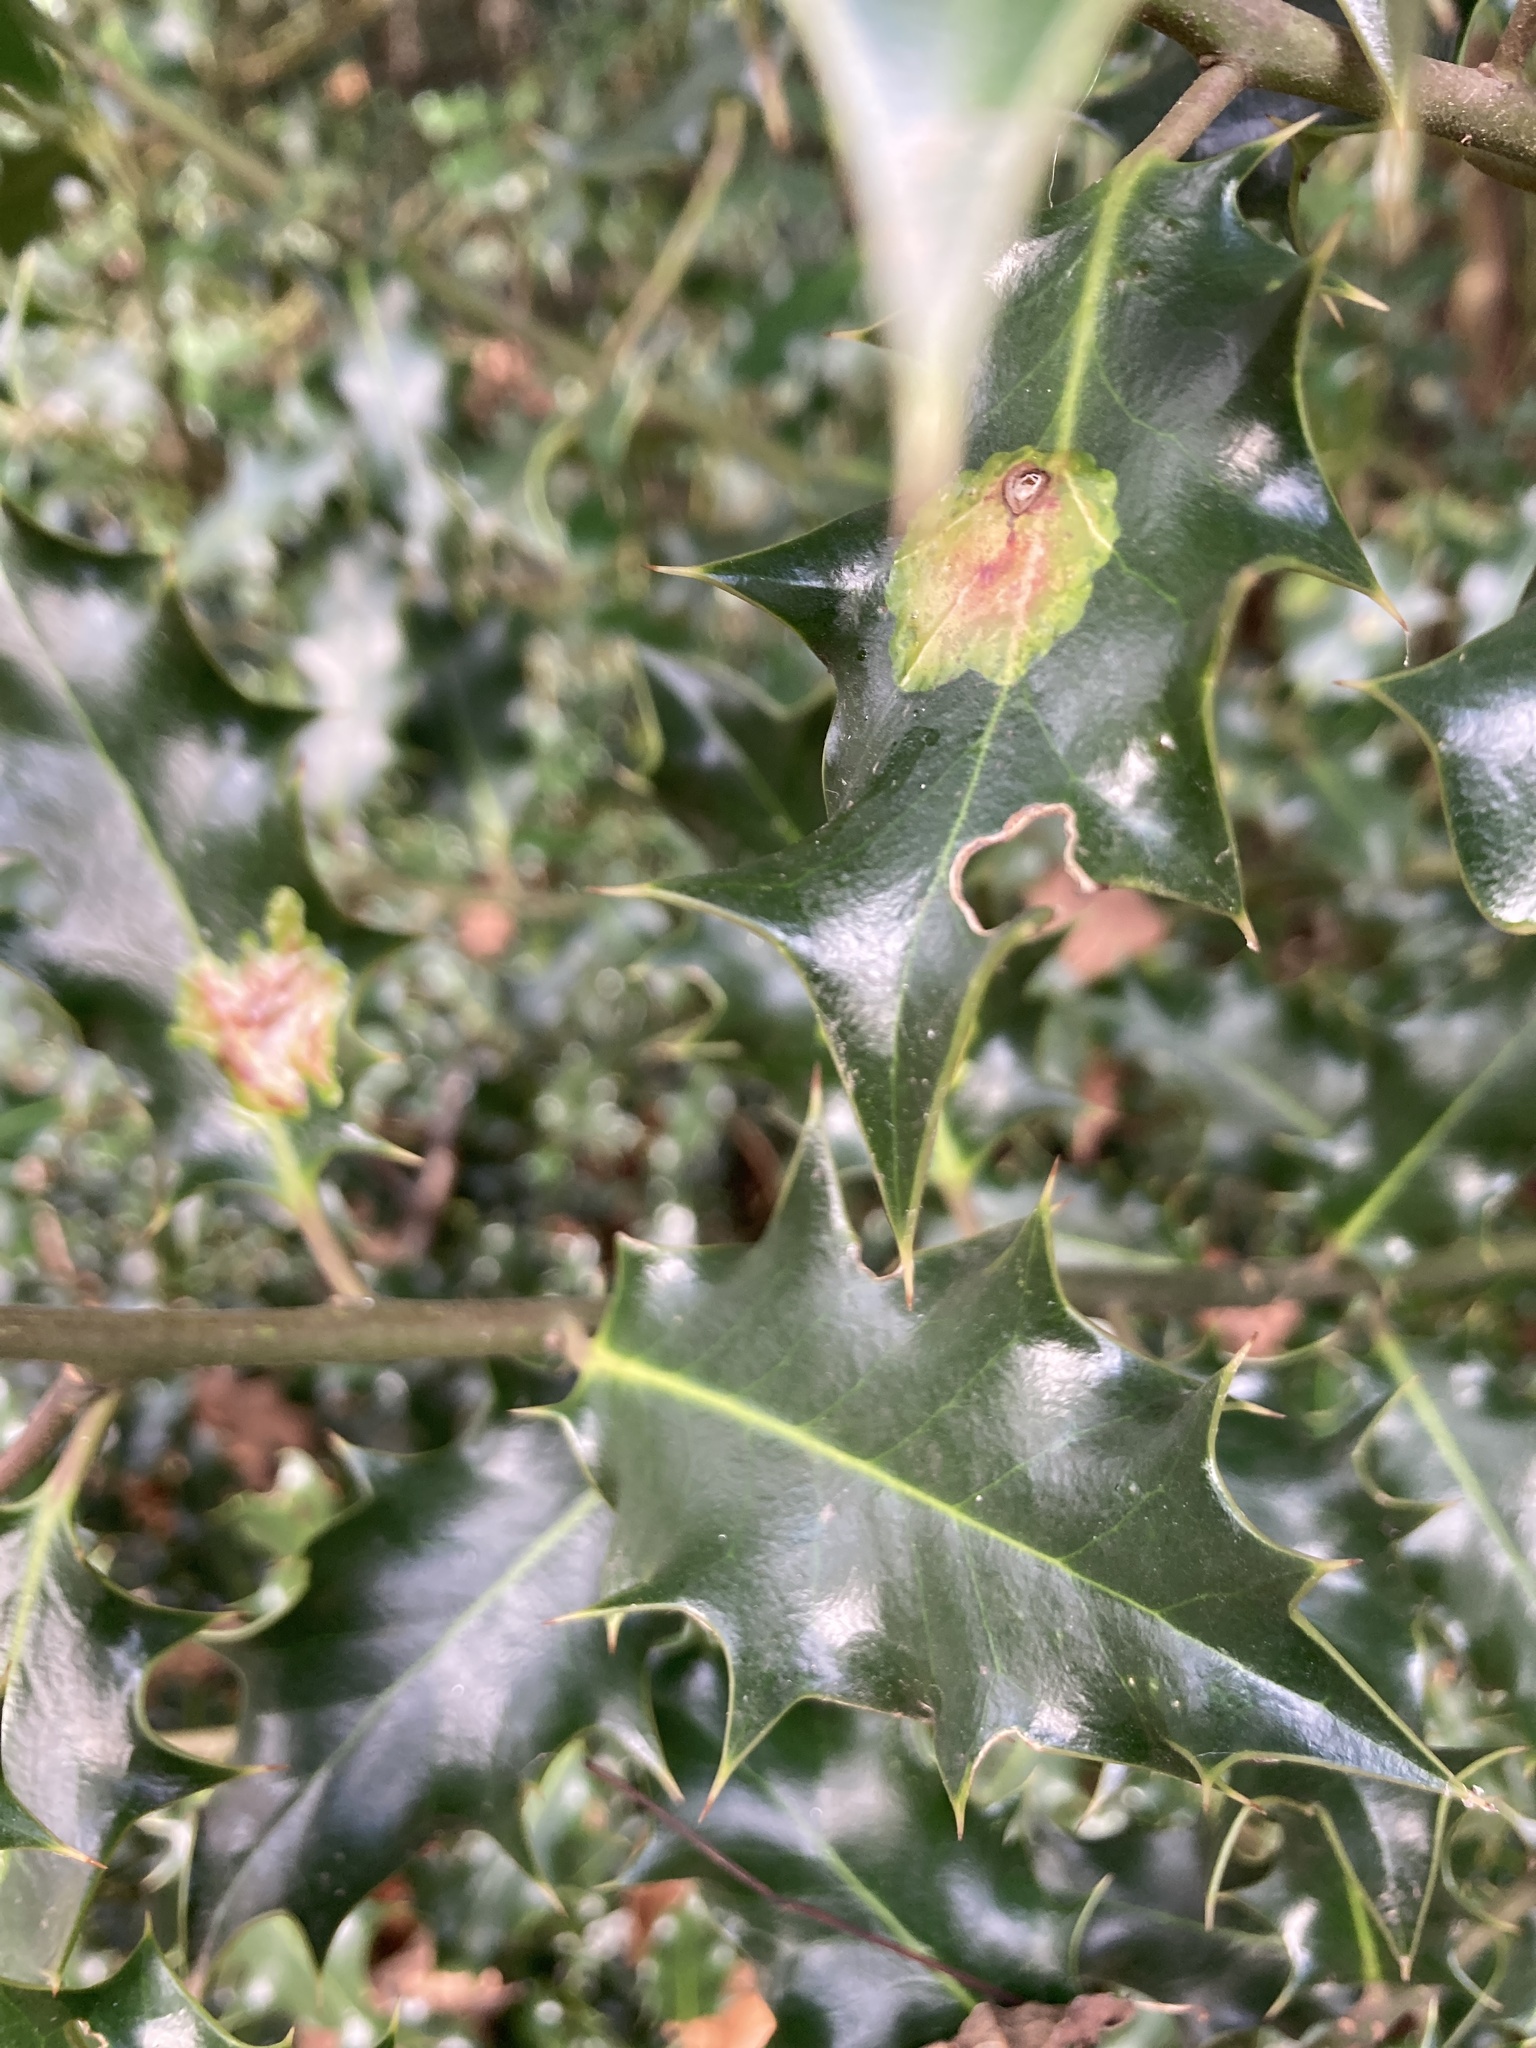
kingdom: Animalia
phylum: Arthropoda
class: Insecta
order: Diptera
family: Agromyzidae
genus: Phytomyza
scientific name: Phytomyza ilicis
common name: Holly leafminer
